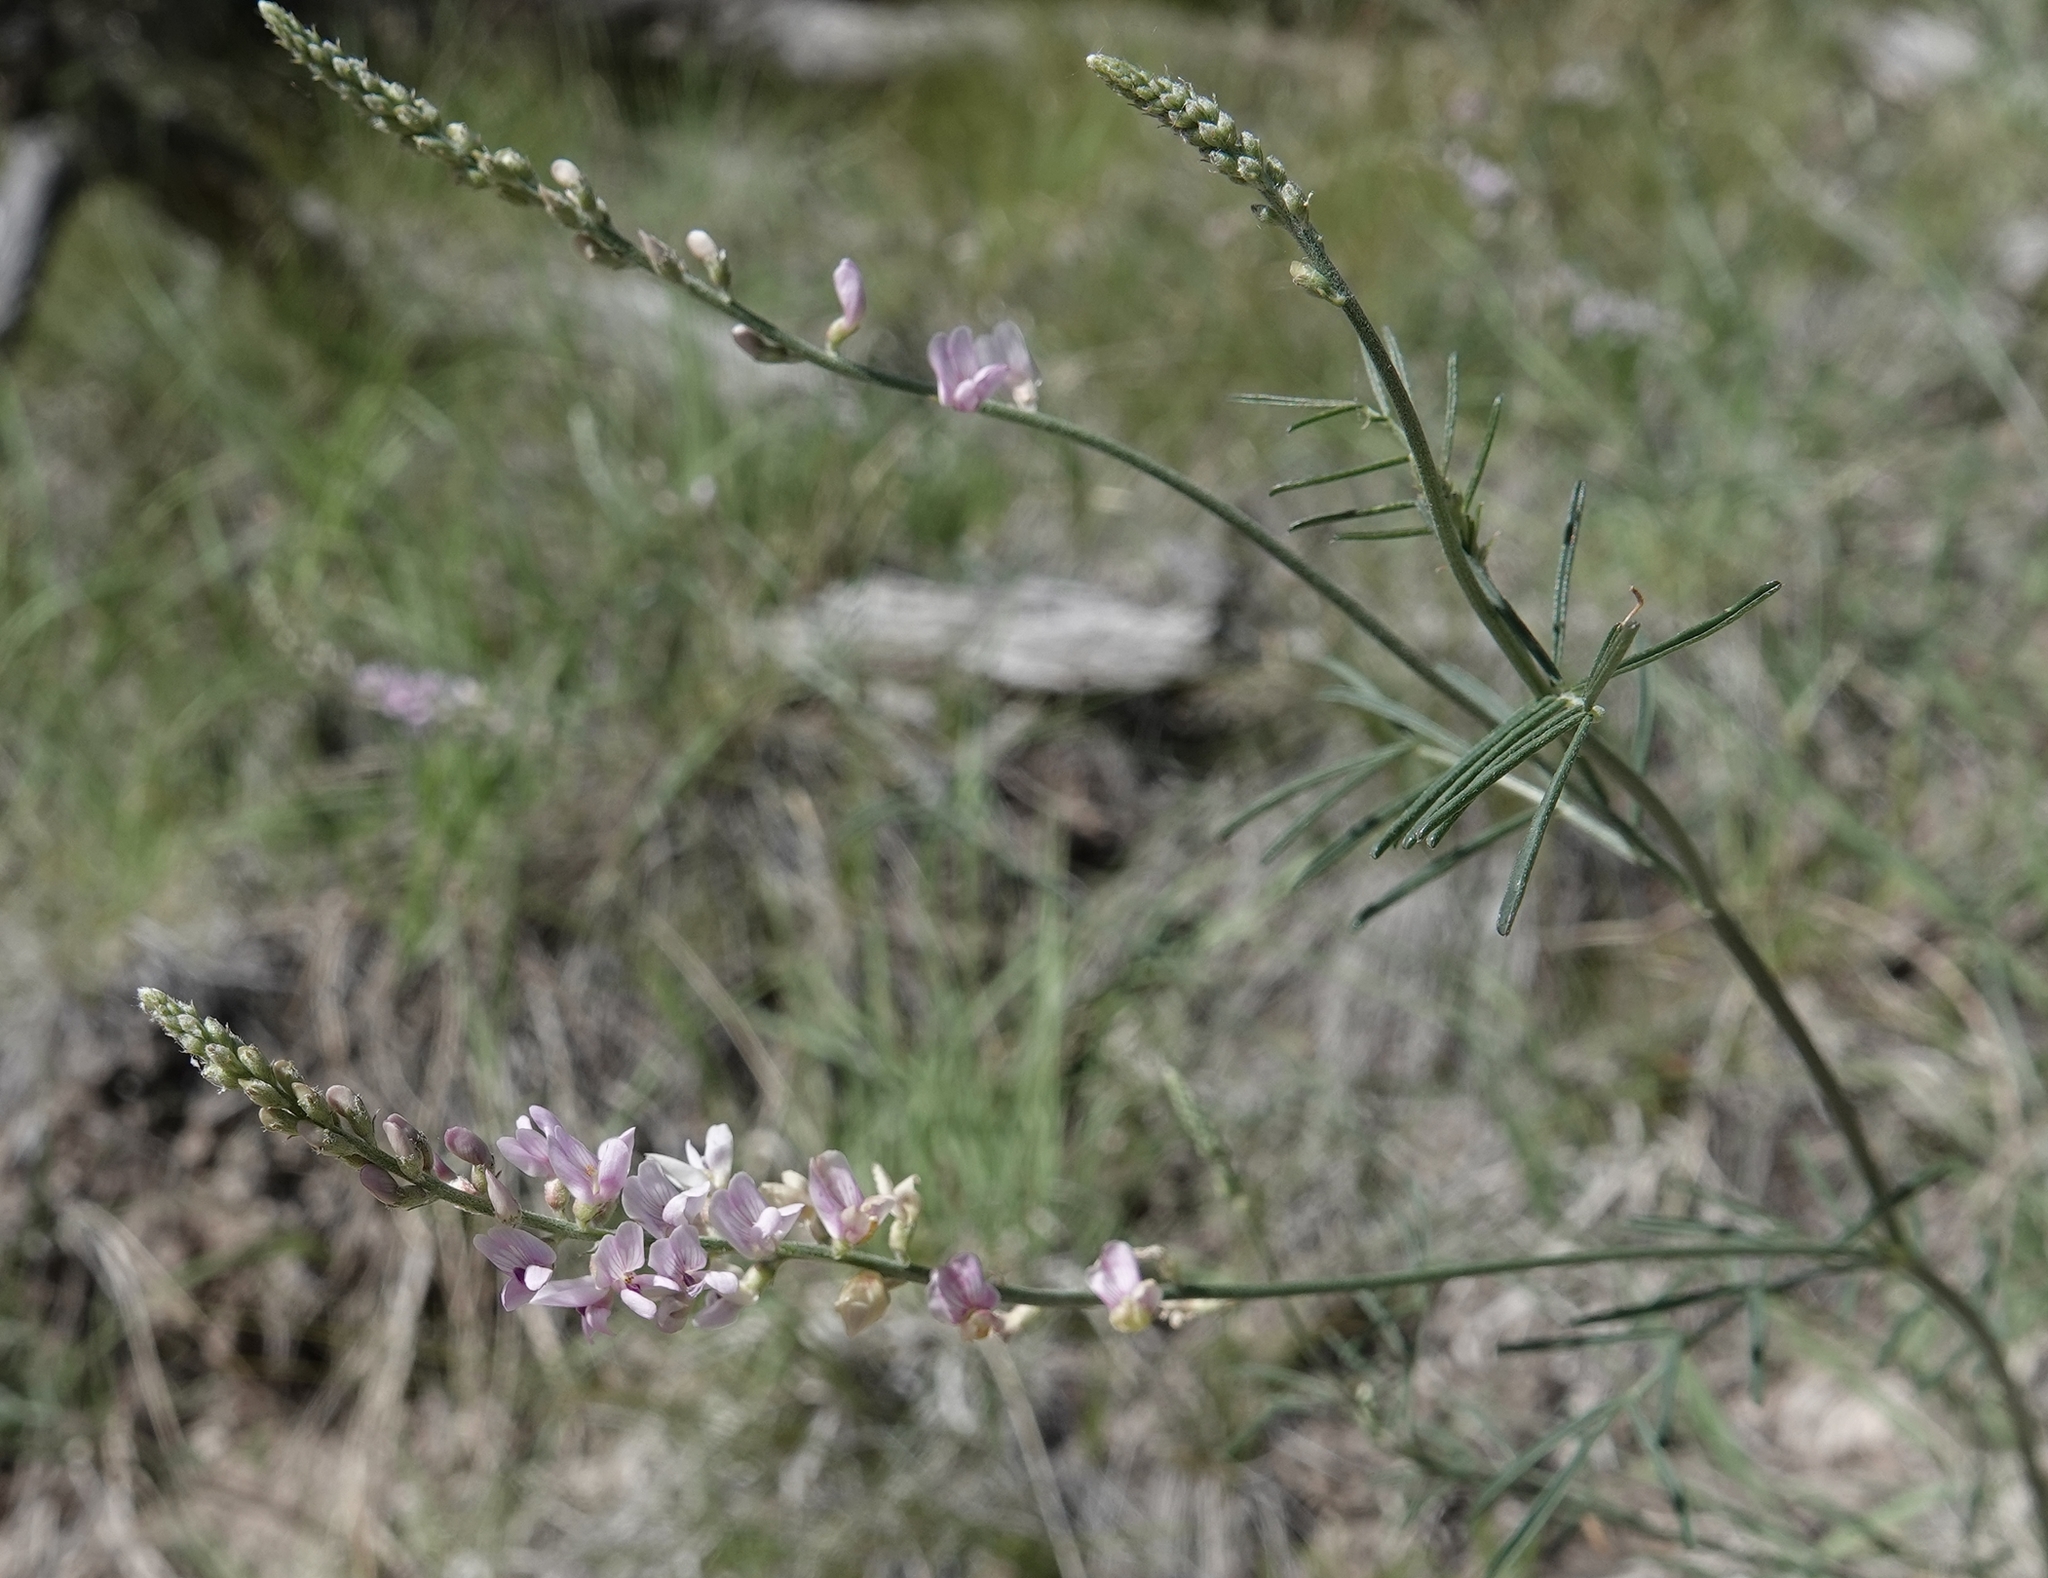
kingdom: Plantae
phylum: Tracheophyta
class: Magnoliopsida
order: Fabales
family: Fabaceae
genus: Astragalus
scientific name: Astragalus gracilis
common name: Slender milk-vetch
